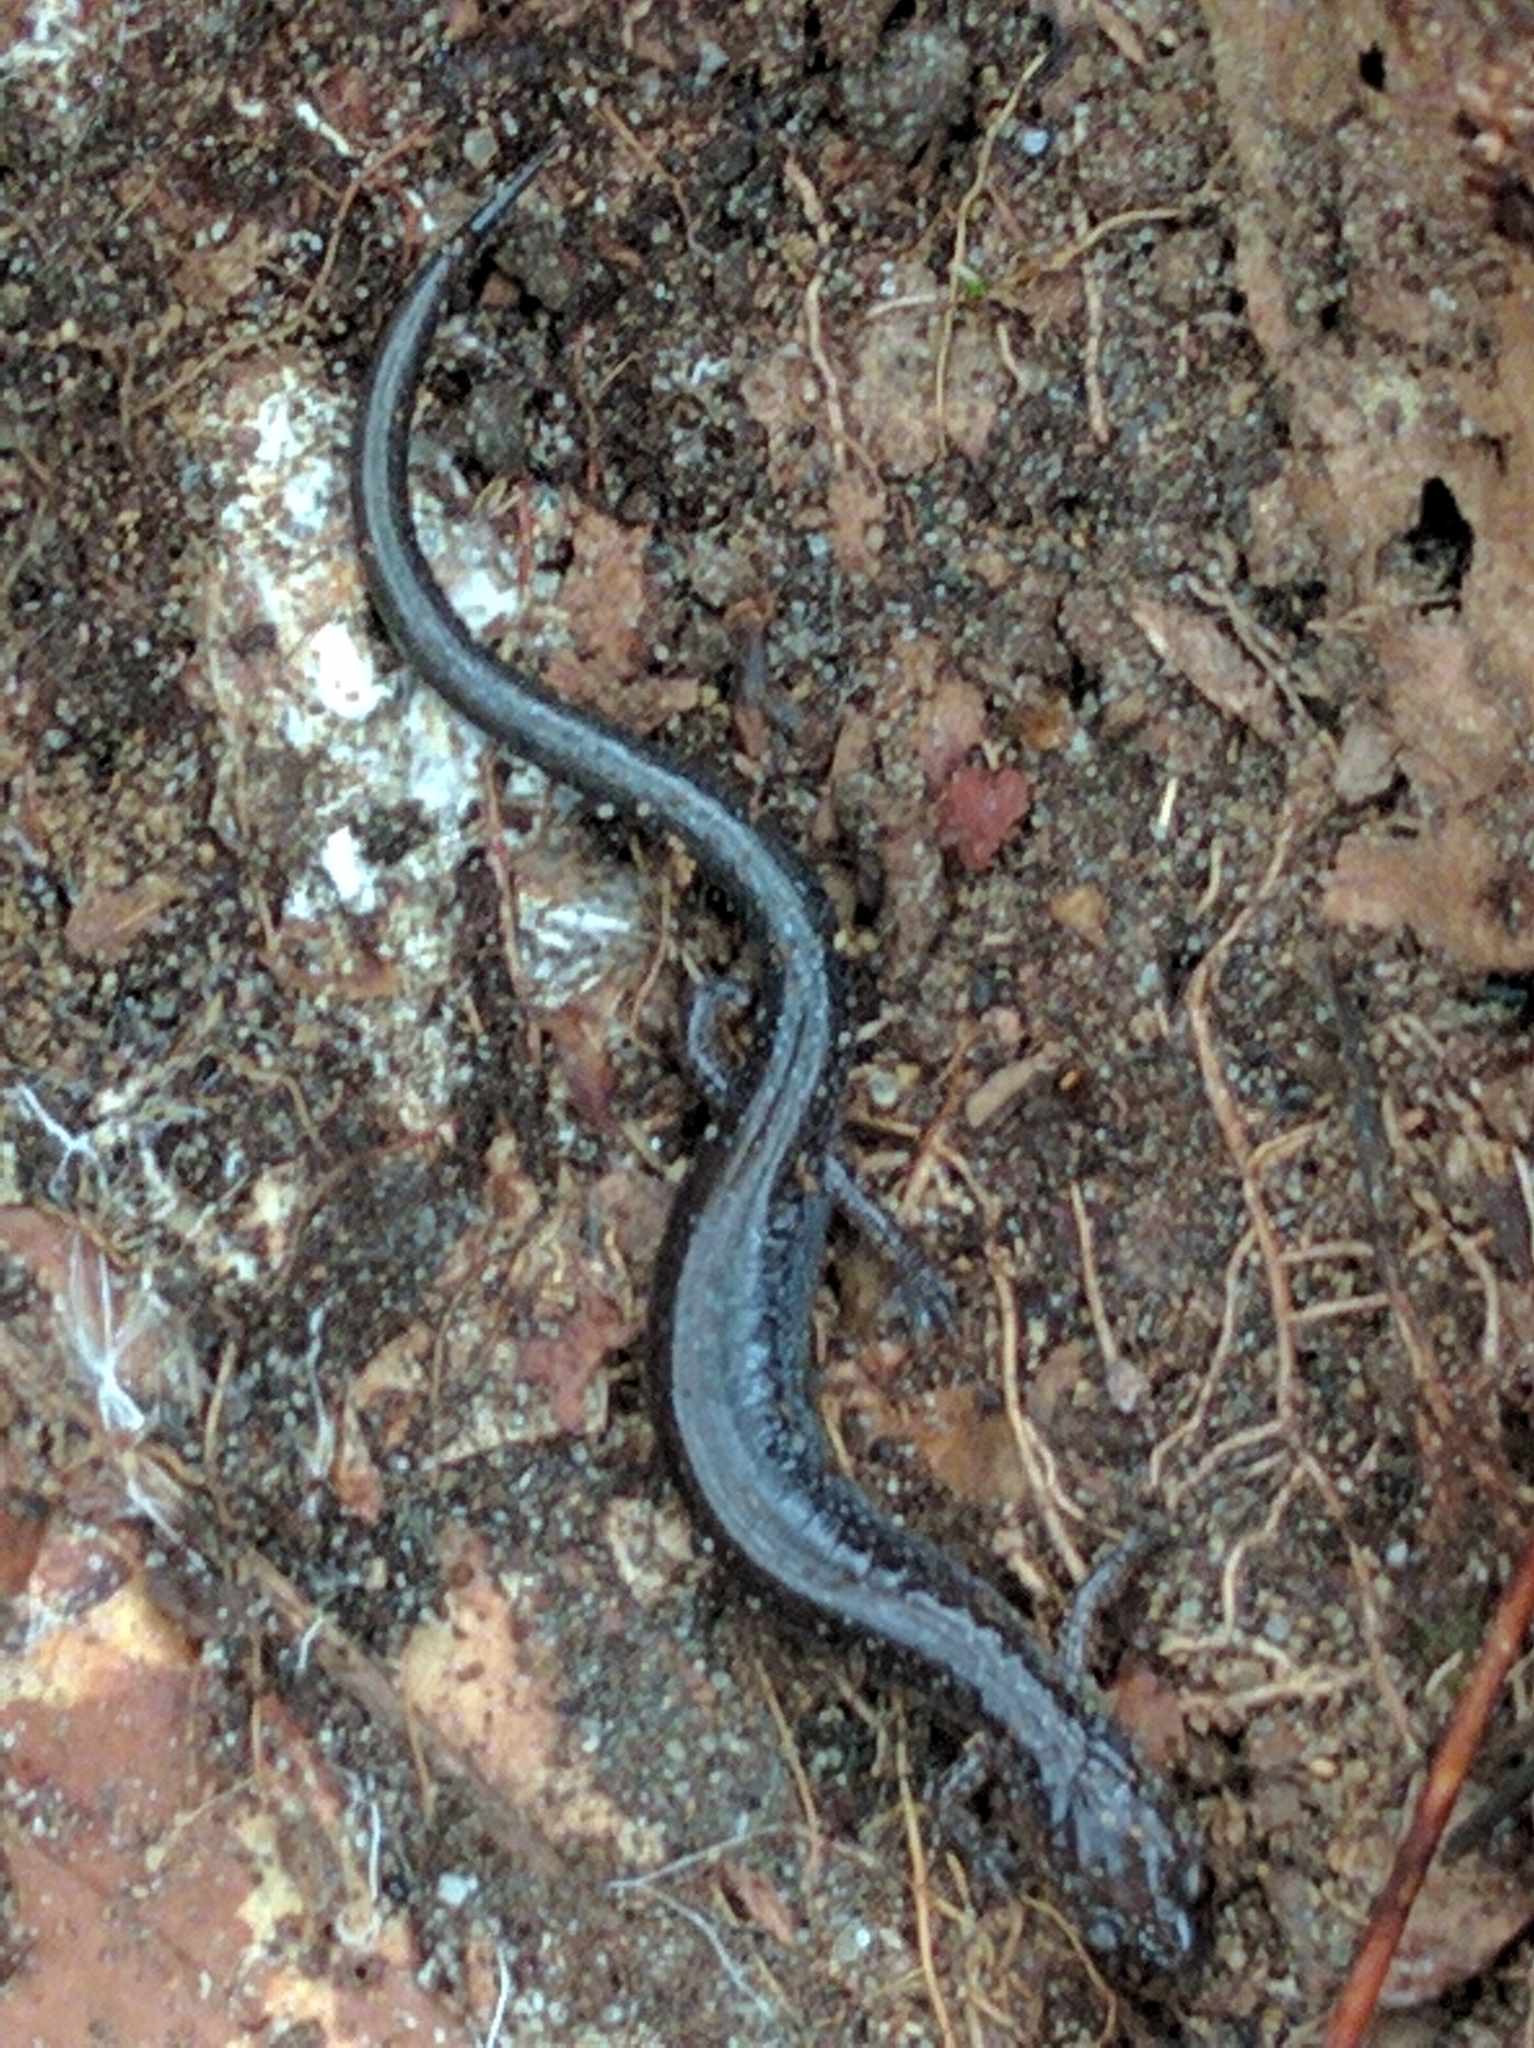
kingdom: Animalia
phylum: Chordata
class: Amphibia
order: Caudata
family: Plethodontidae
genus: Plethodon
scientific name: Plethodon cinereus
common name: Redback salamander
